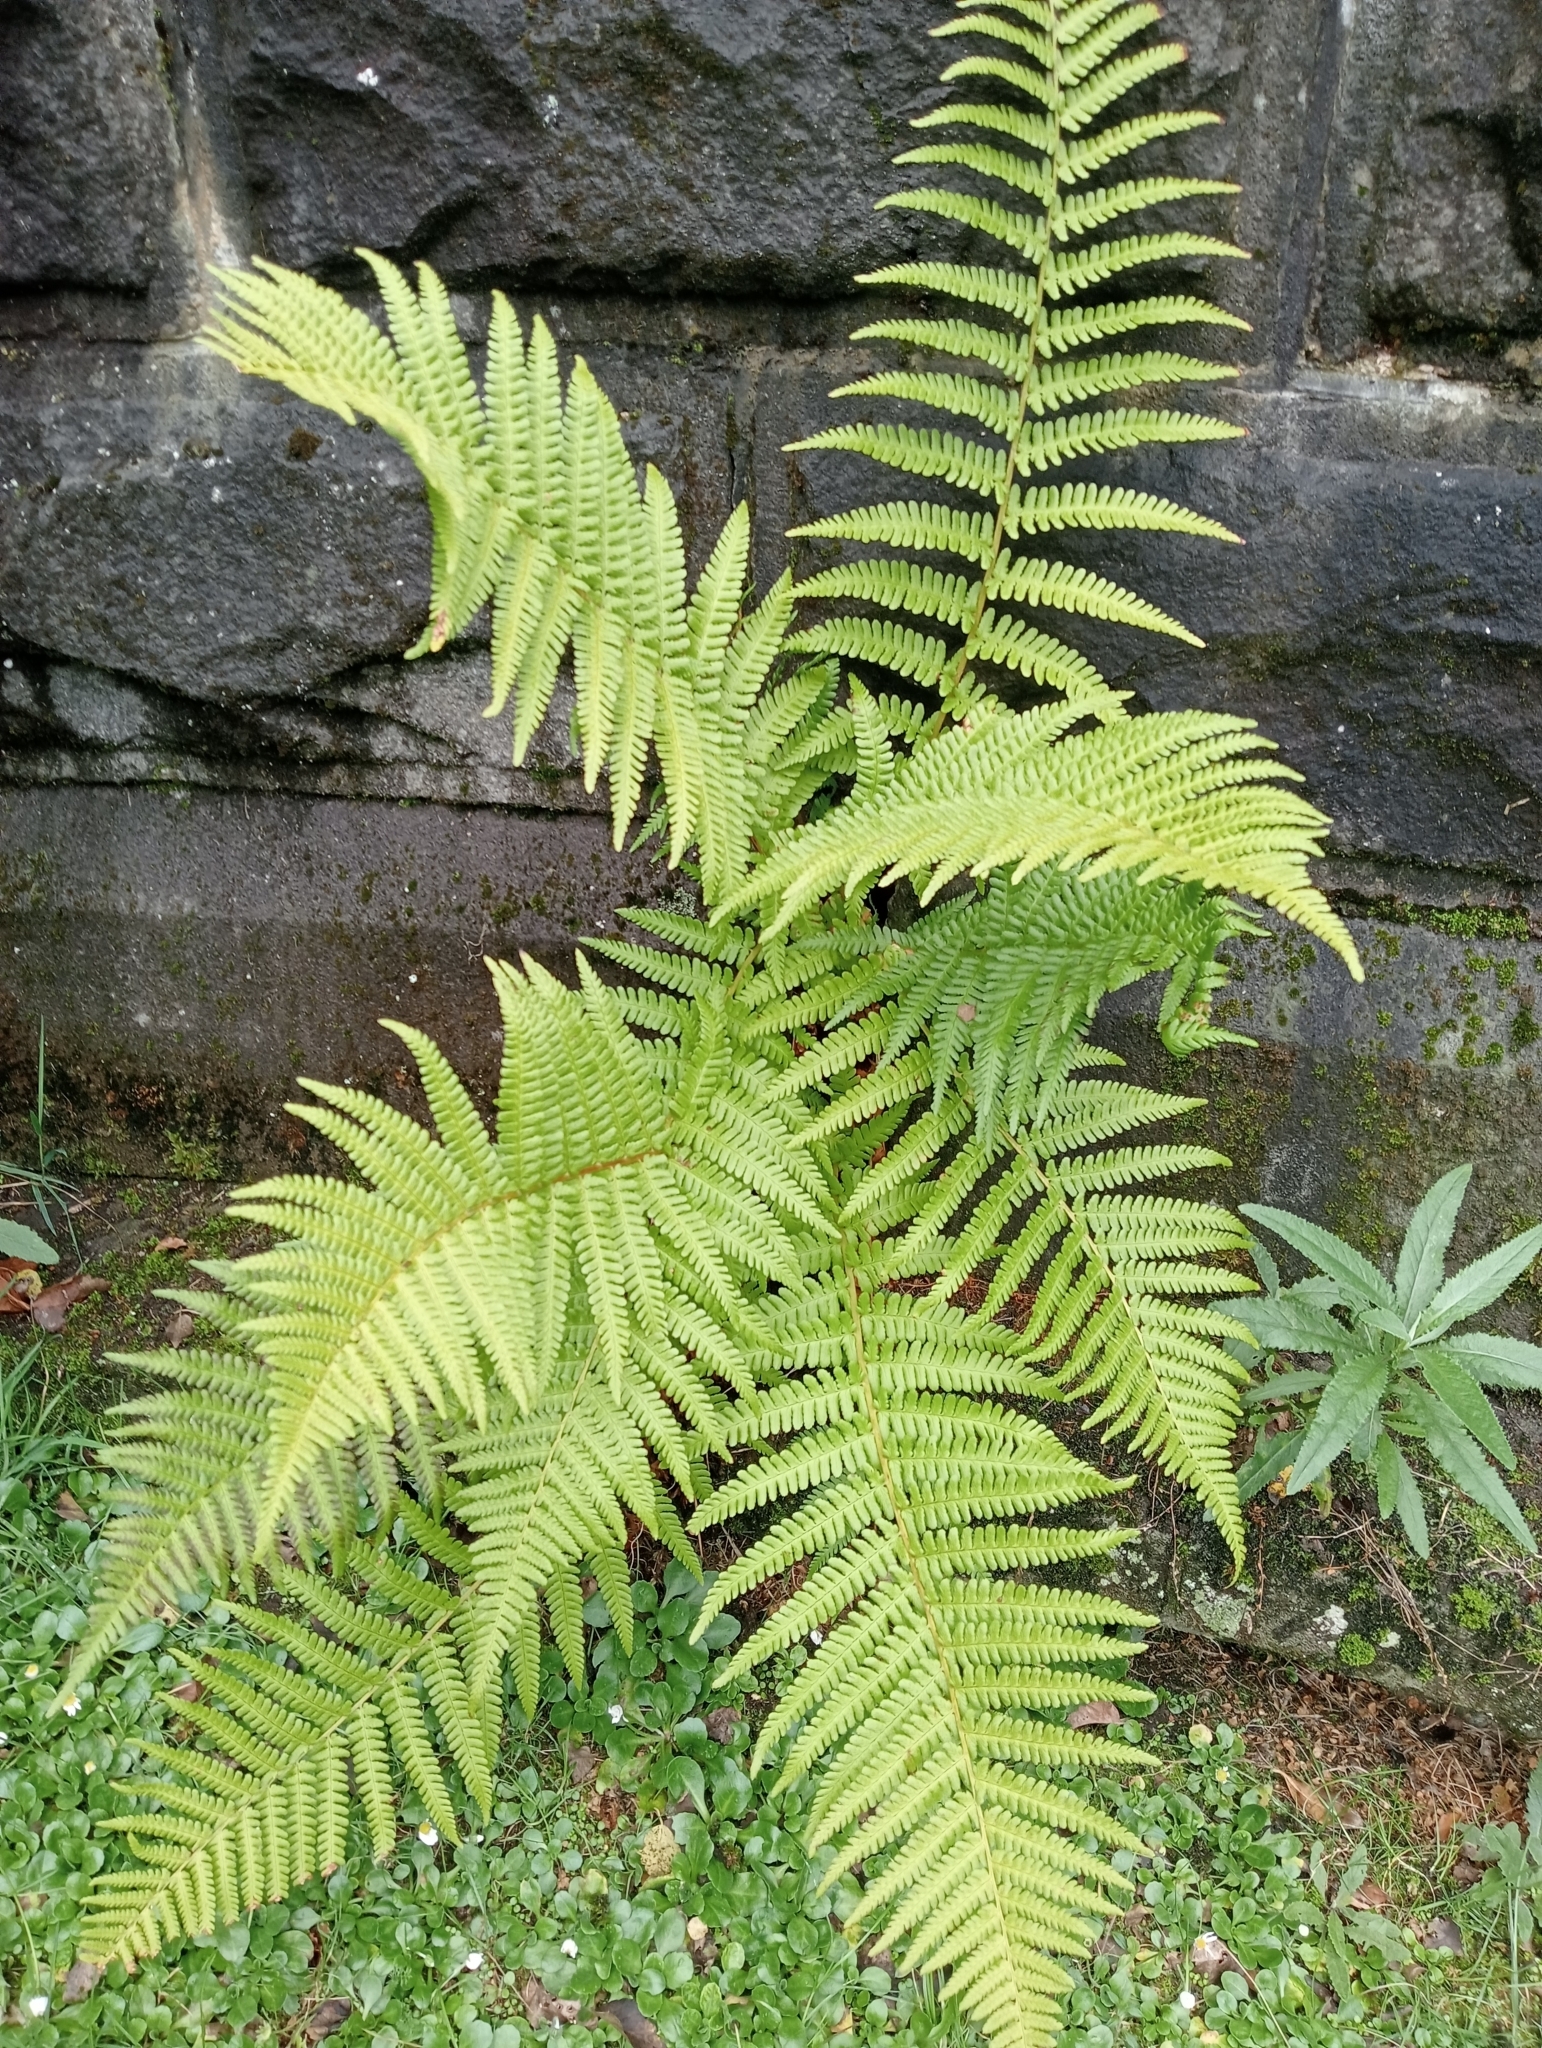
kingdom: Plantae
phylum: Tracheophyta
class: Polypodiopsida
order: Polypodiales
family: Dryopteridaceae
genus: Dryopteris
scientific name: Dryopteris filix-mas
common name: Male fern
